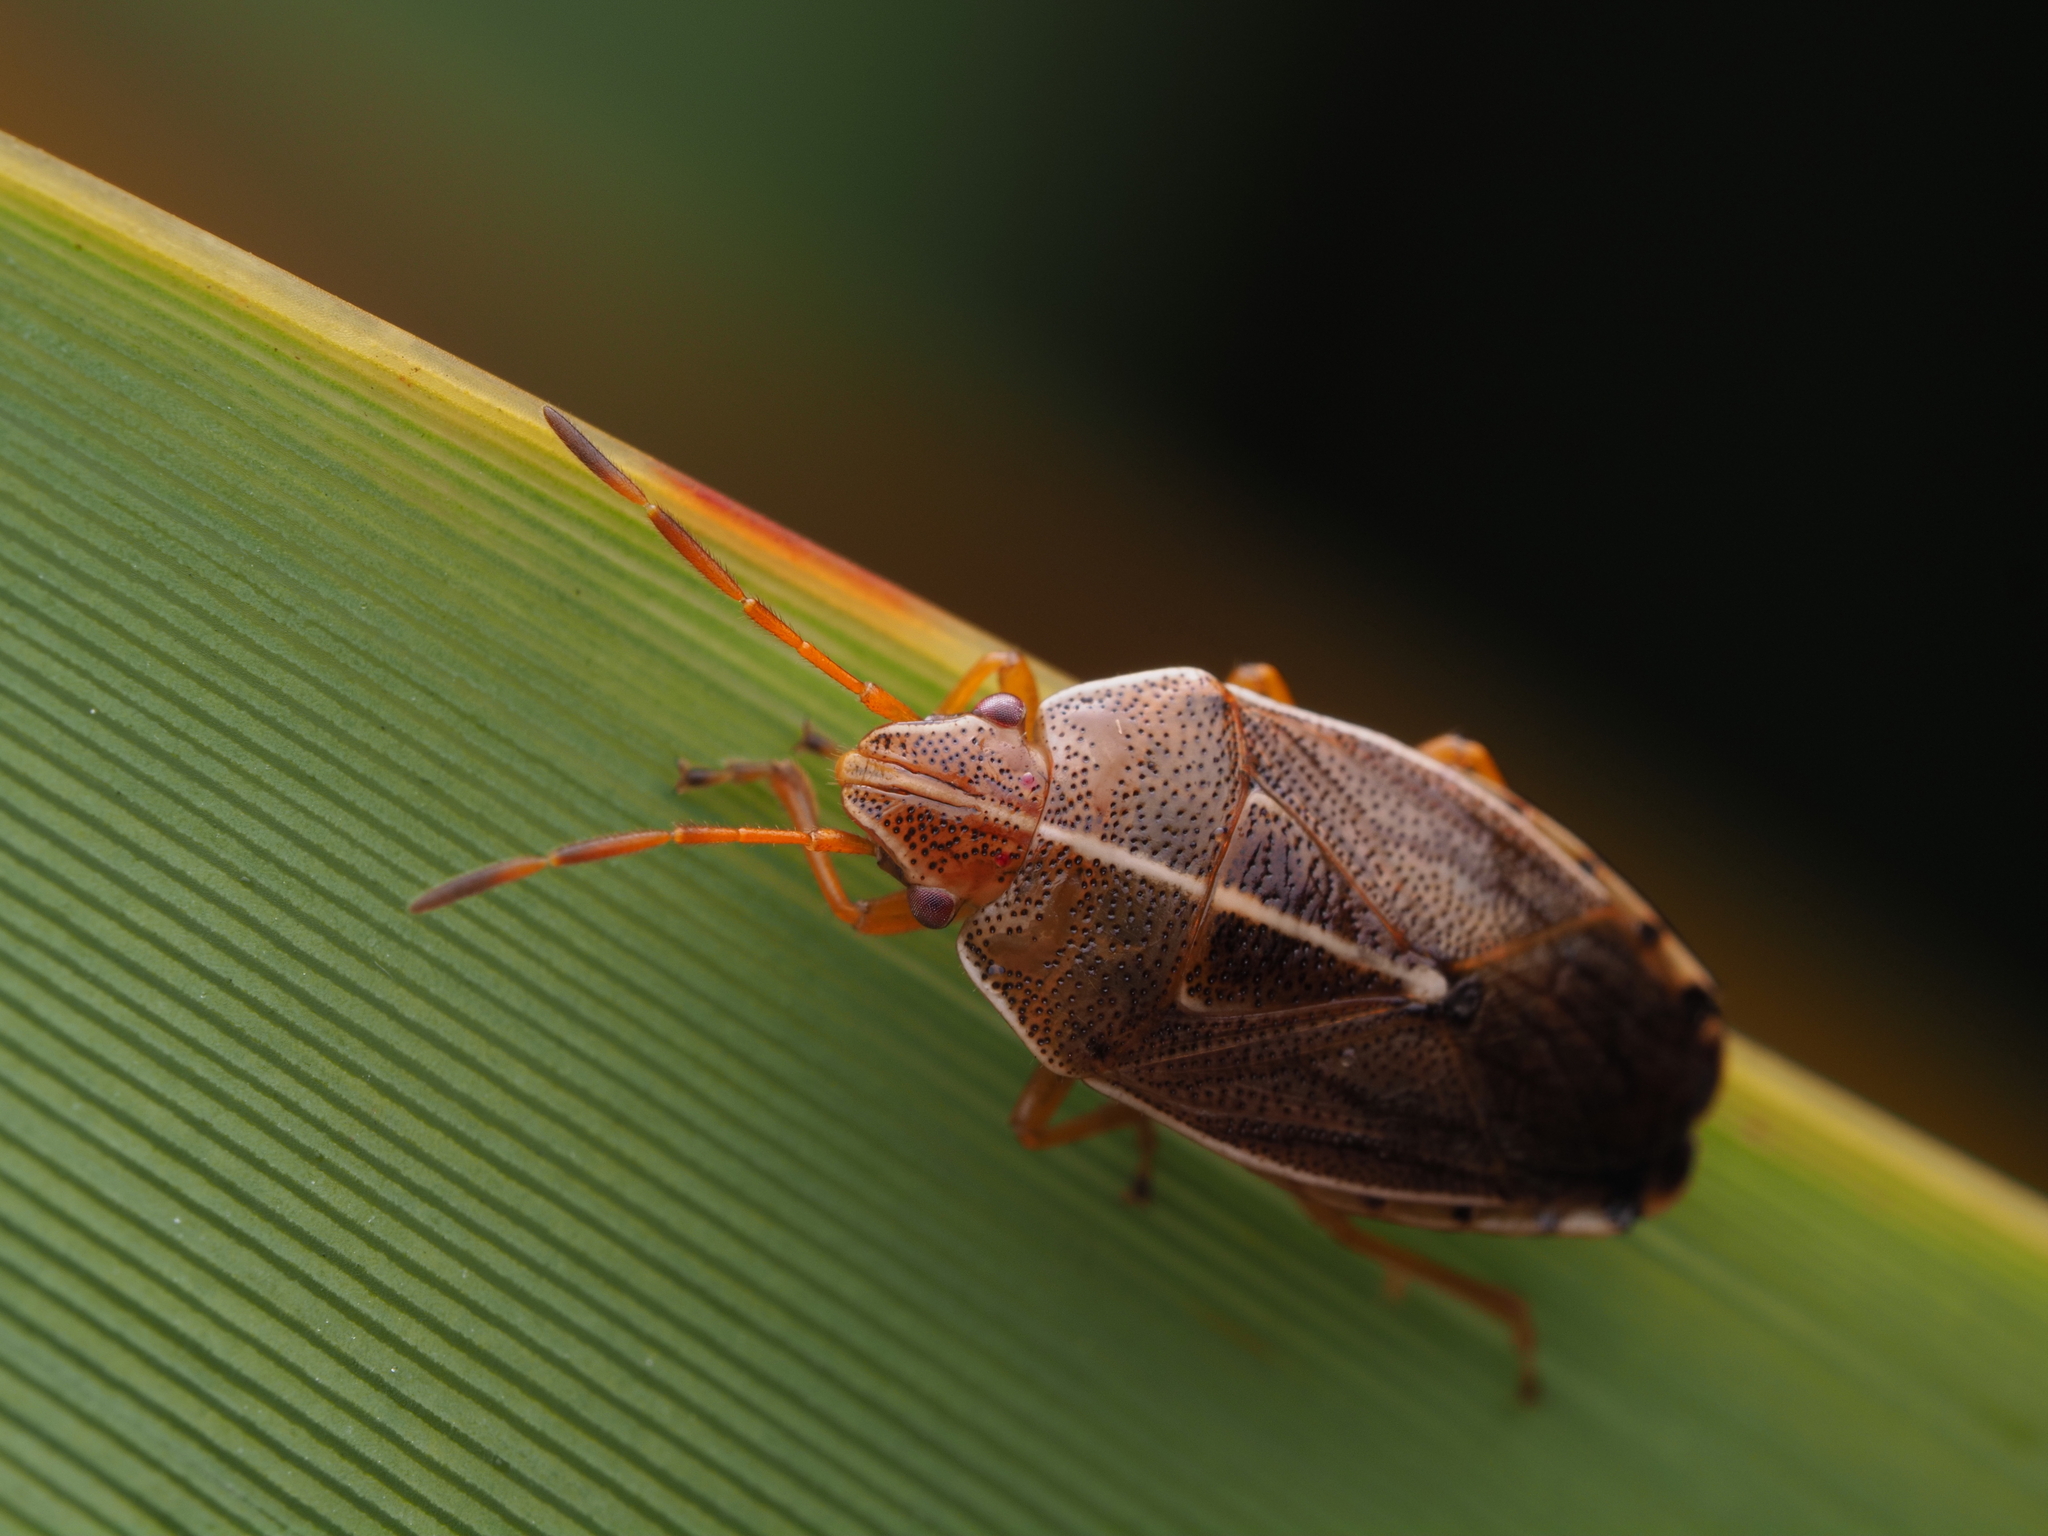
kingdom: Animalia
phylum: Arthropoda
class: Insecta
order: Hemiptera
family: Acanthosomatidae
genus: Rhopalimorpha
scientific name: Rhopalimorpha lineolaris
